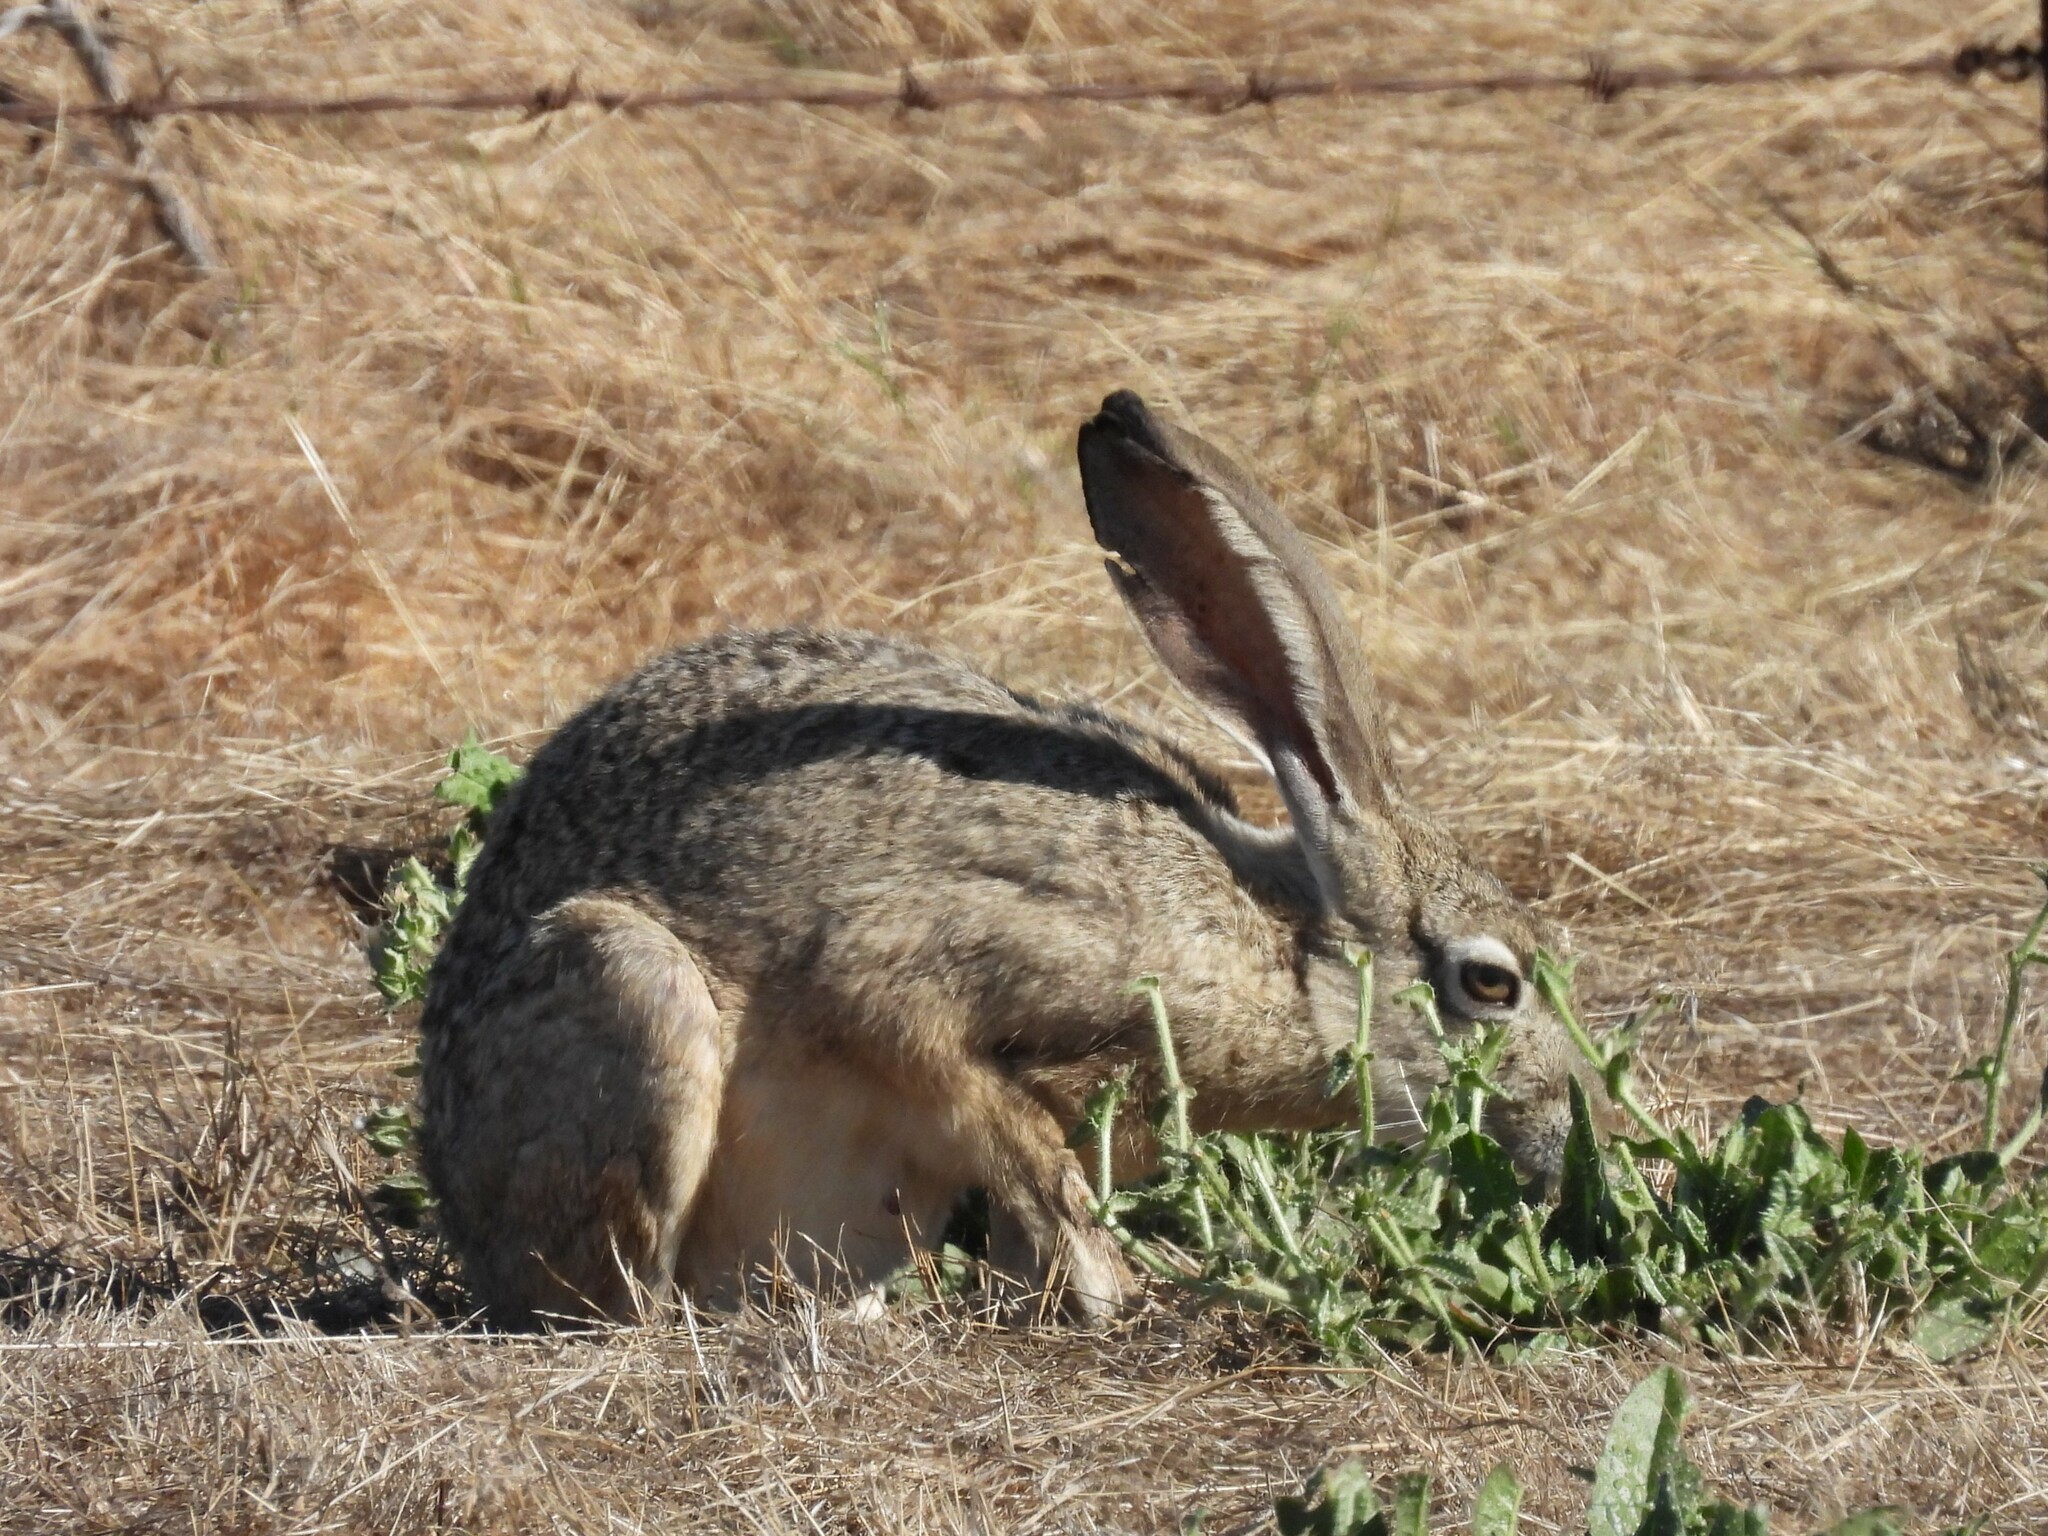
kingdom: Animalia
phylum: Chordata
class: Mammalia
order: Lagomorpha
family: Leporidae
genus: Lepus
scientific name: Lepus californicus
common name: Black-tailed jackrabbit
